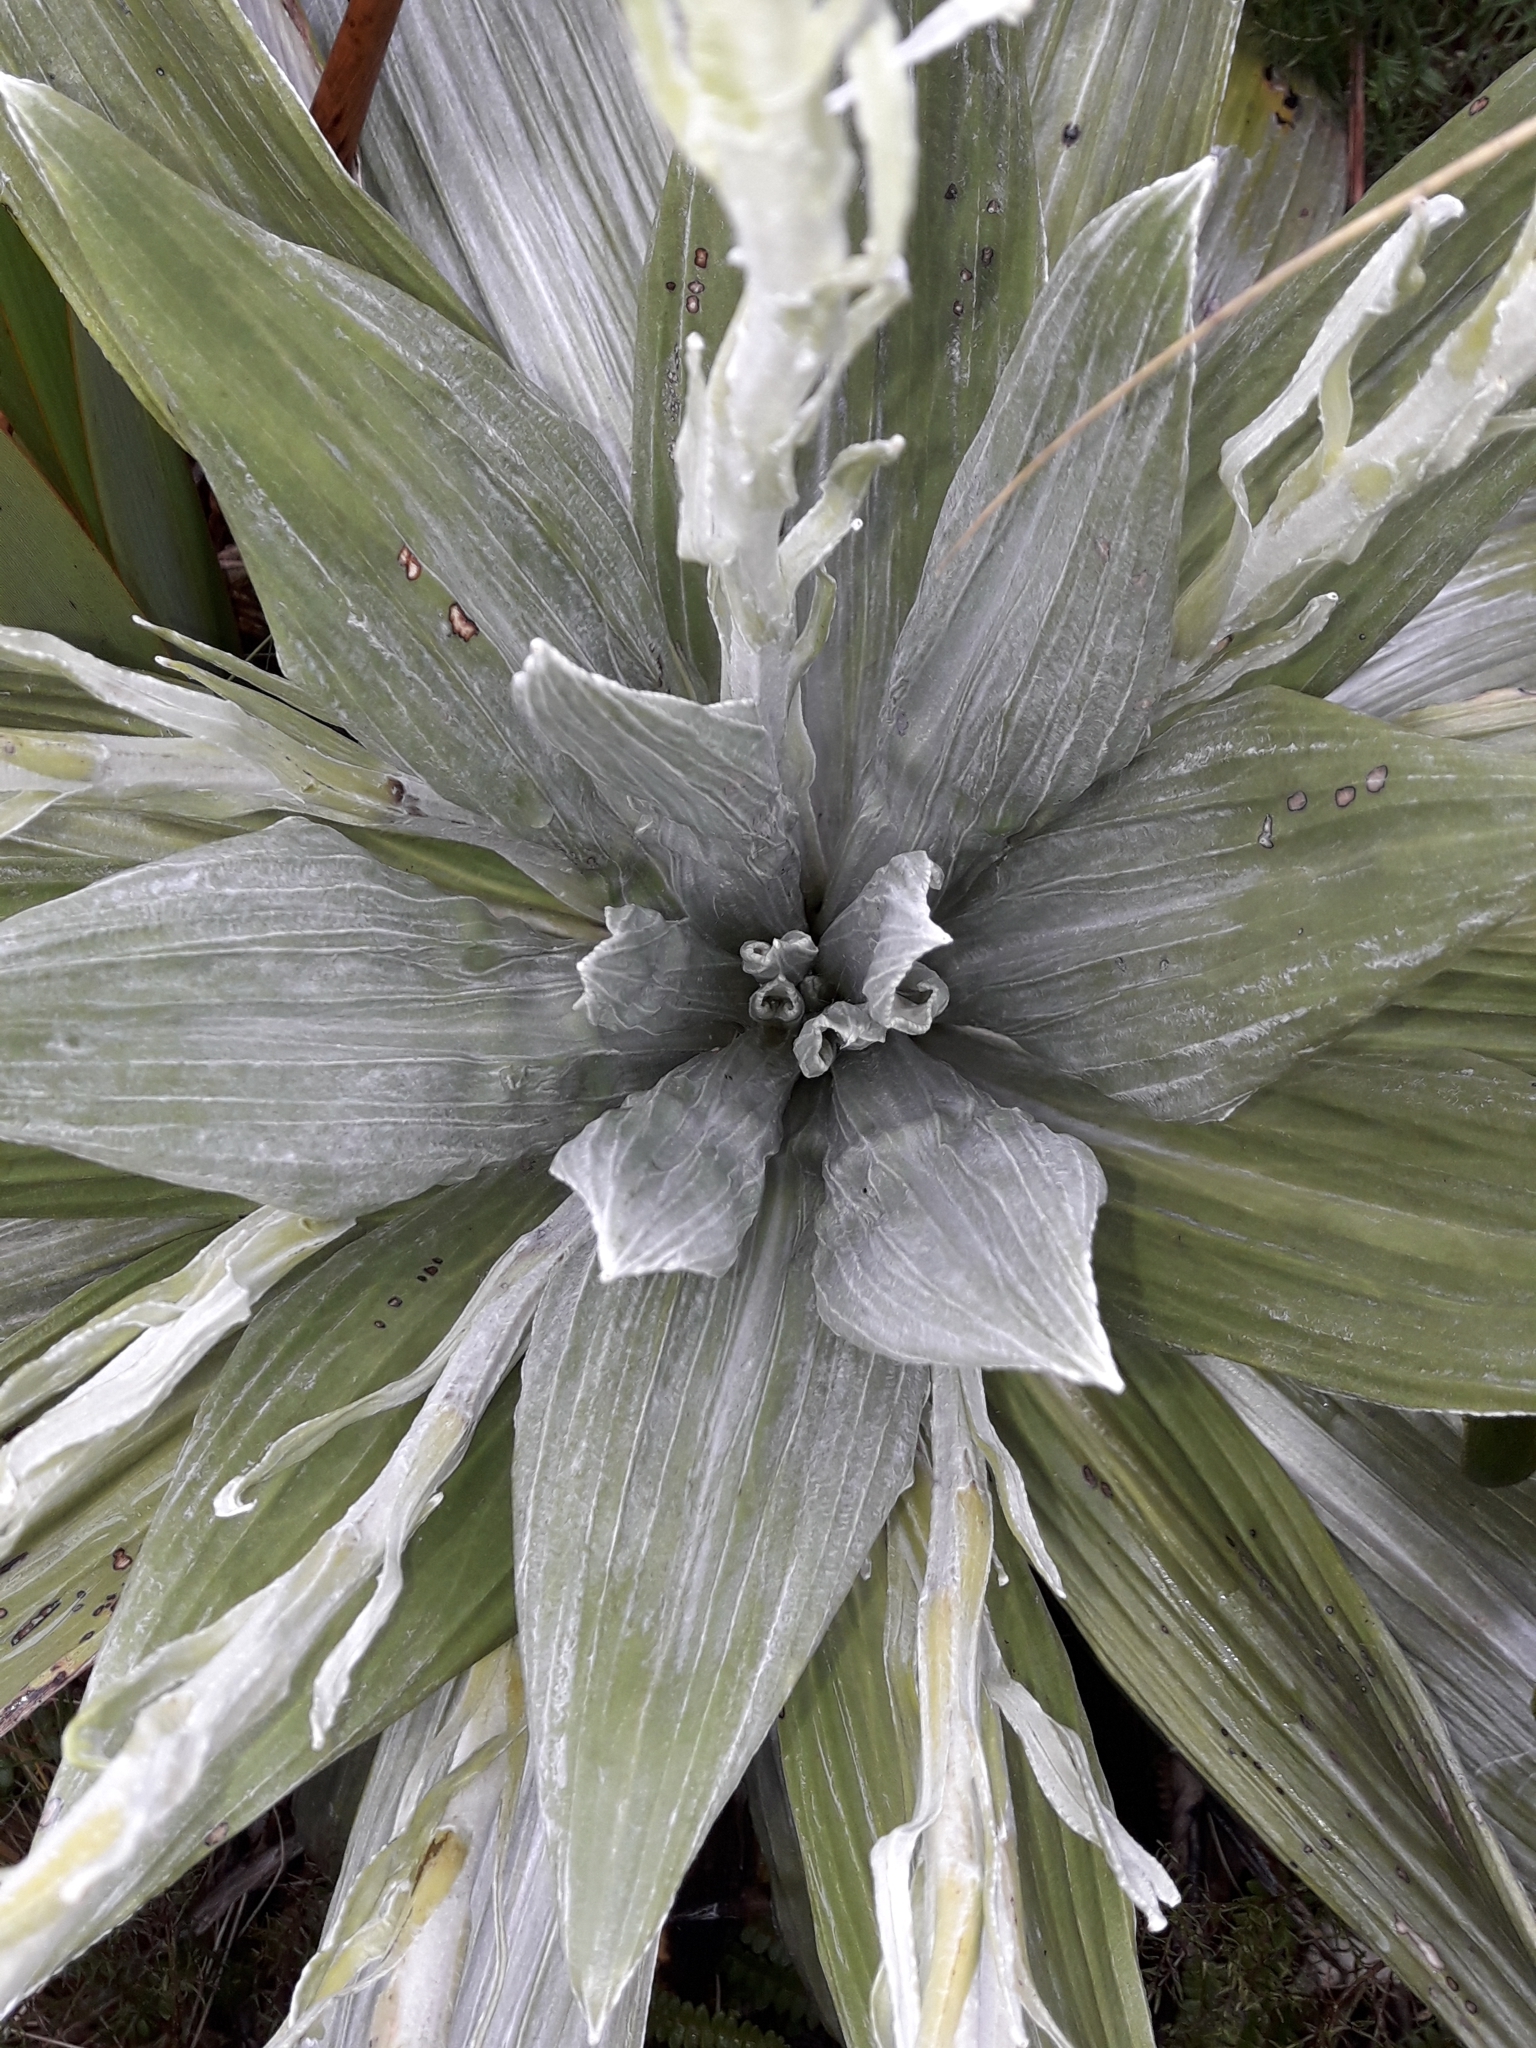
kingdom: Plantae
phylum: Tracheophyta
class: Magnoliopsida
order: Asterales
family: Asteraceae
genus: Celmisia
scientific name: Celmisia semicordata
